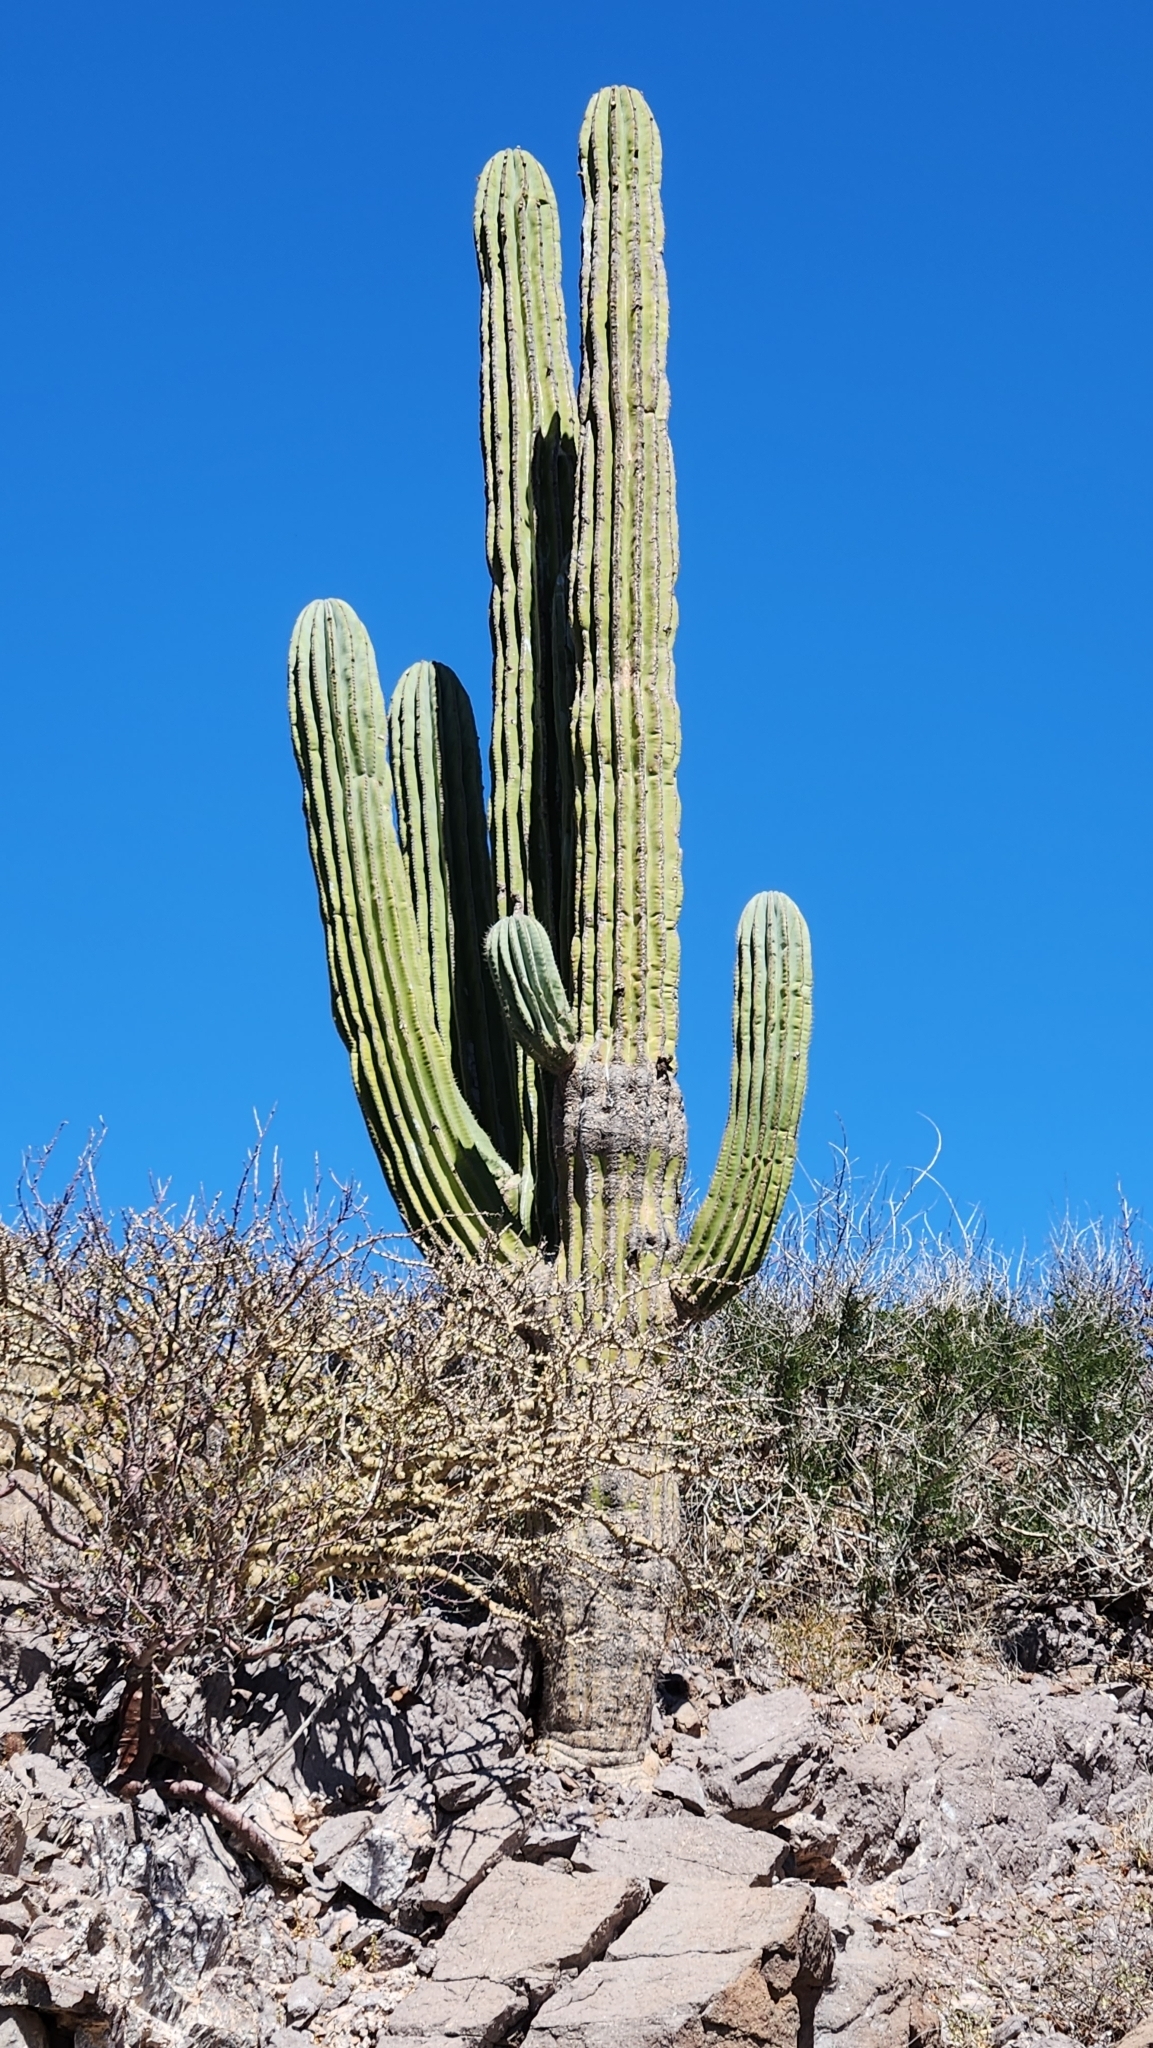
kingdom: Plantae
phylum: Tracheophyta
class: Magnoliopsida
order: Caryophyllales
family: Cactaceae
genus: Pachycereus
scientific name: Pachycereus pringlei
